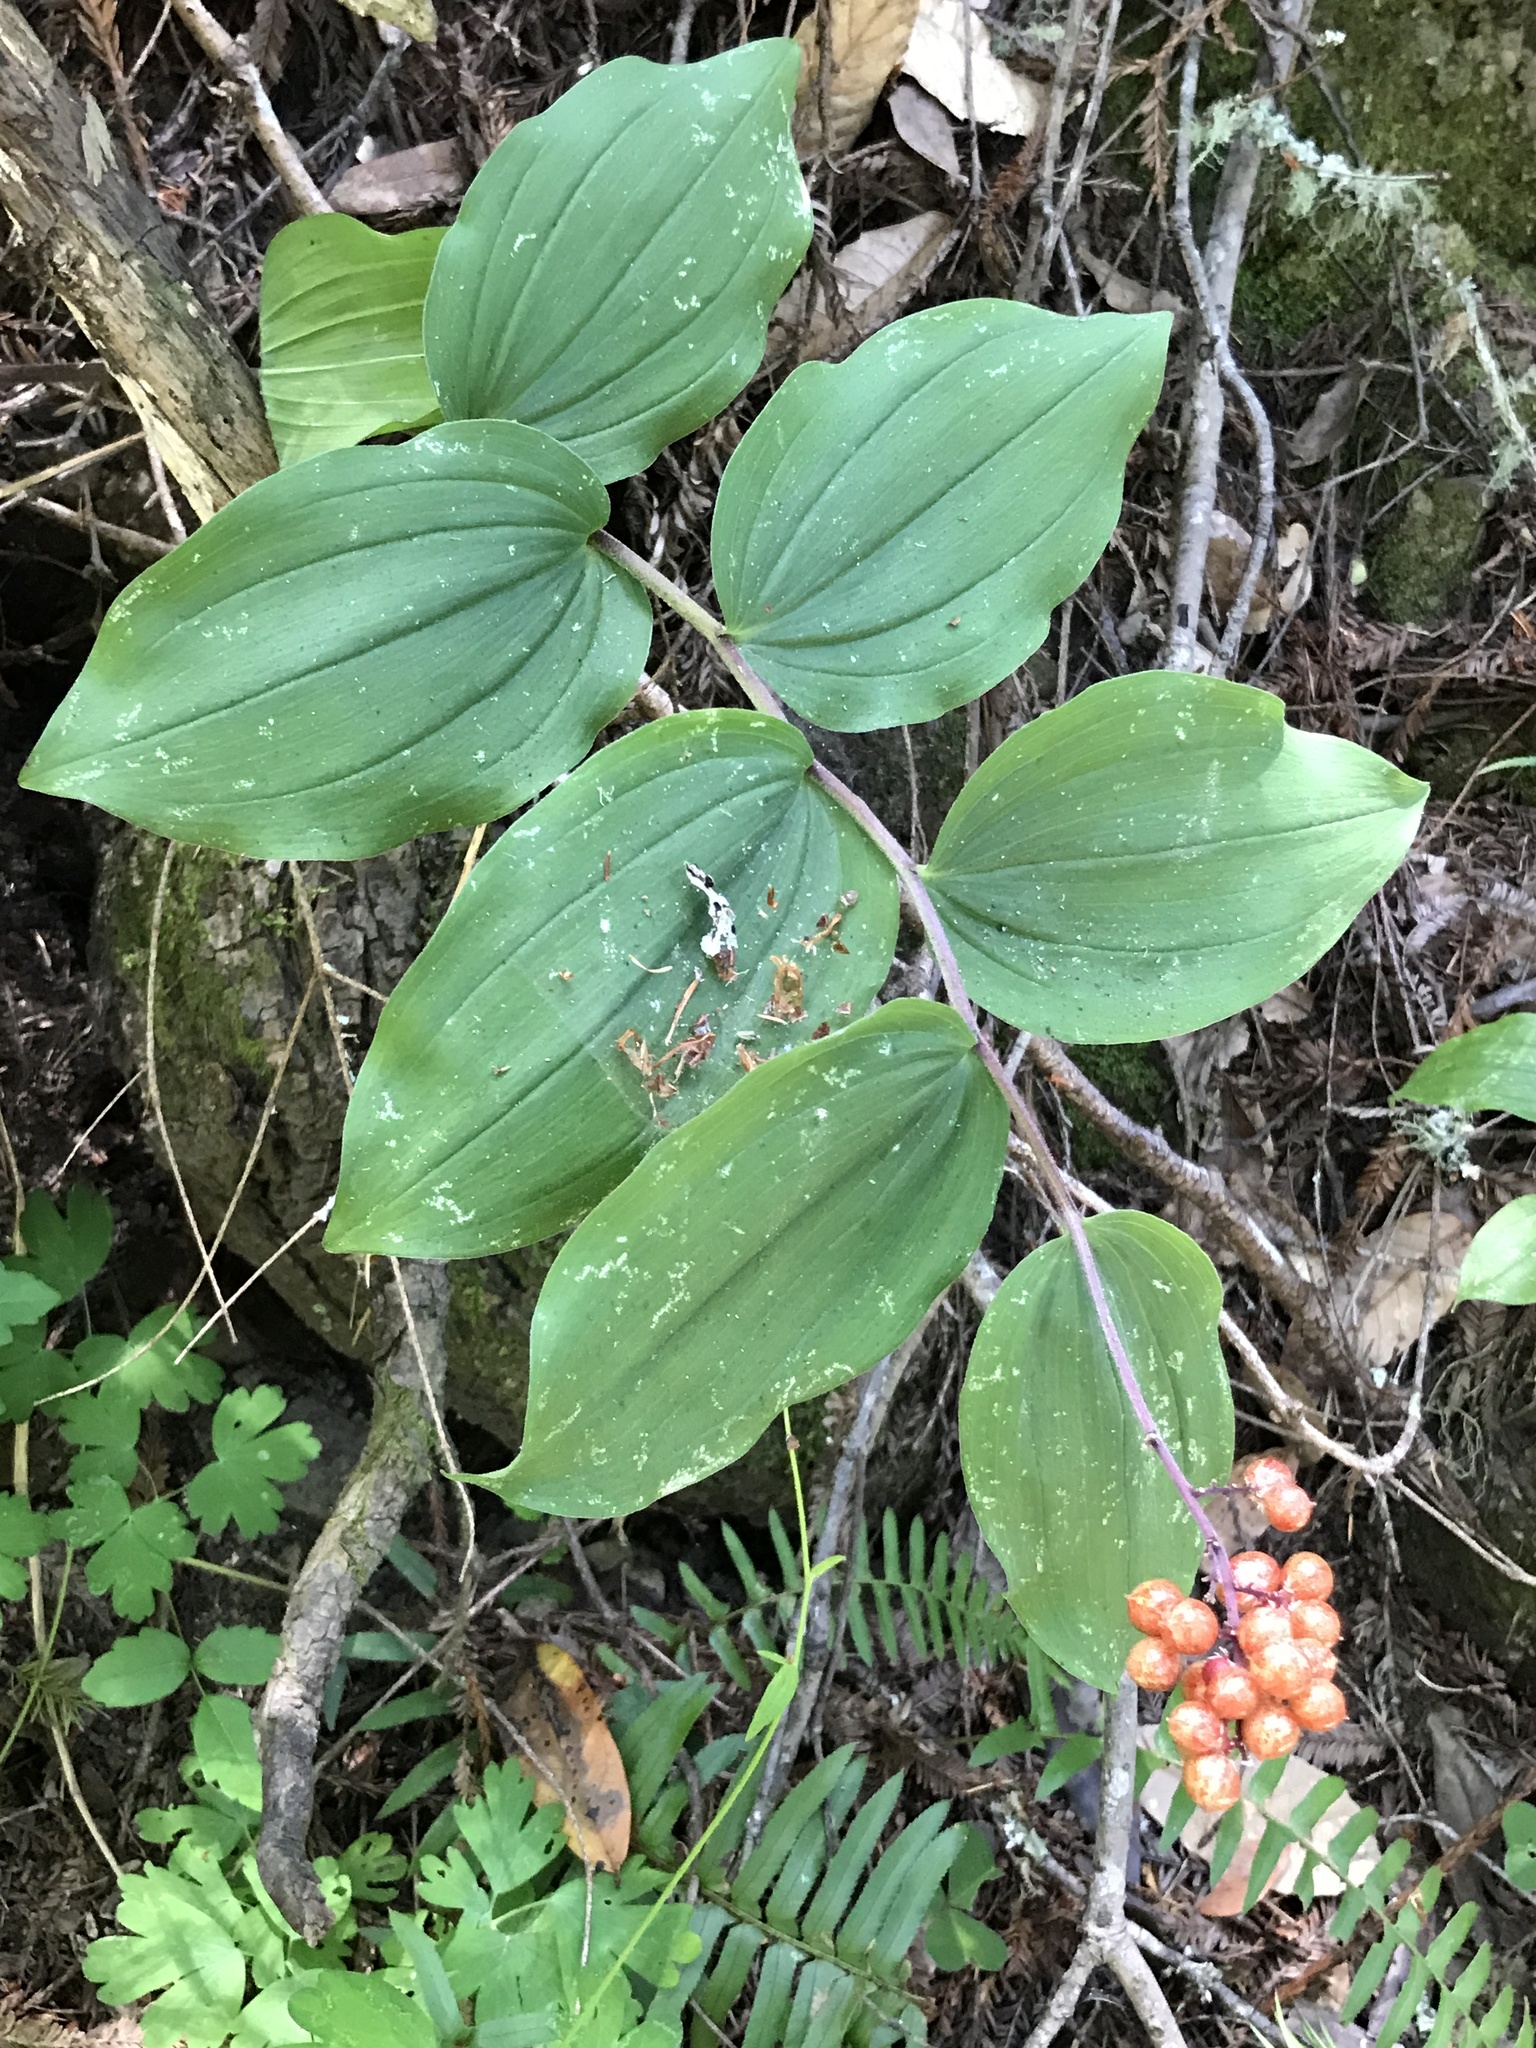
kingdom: Plantae
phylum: Tracheophyta
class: Liliopsida
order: Asparagales
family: Asparagaceae
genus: Maianthemum
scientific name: Maianthemum racemosum
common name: False spikenard
